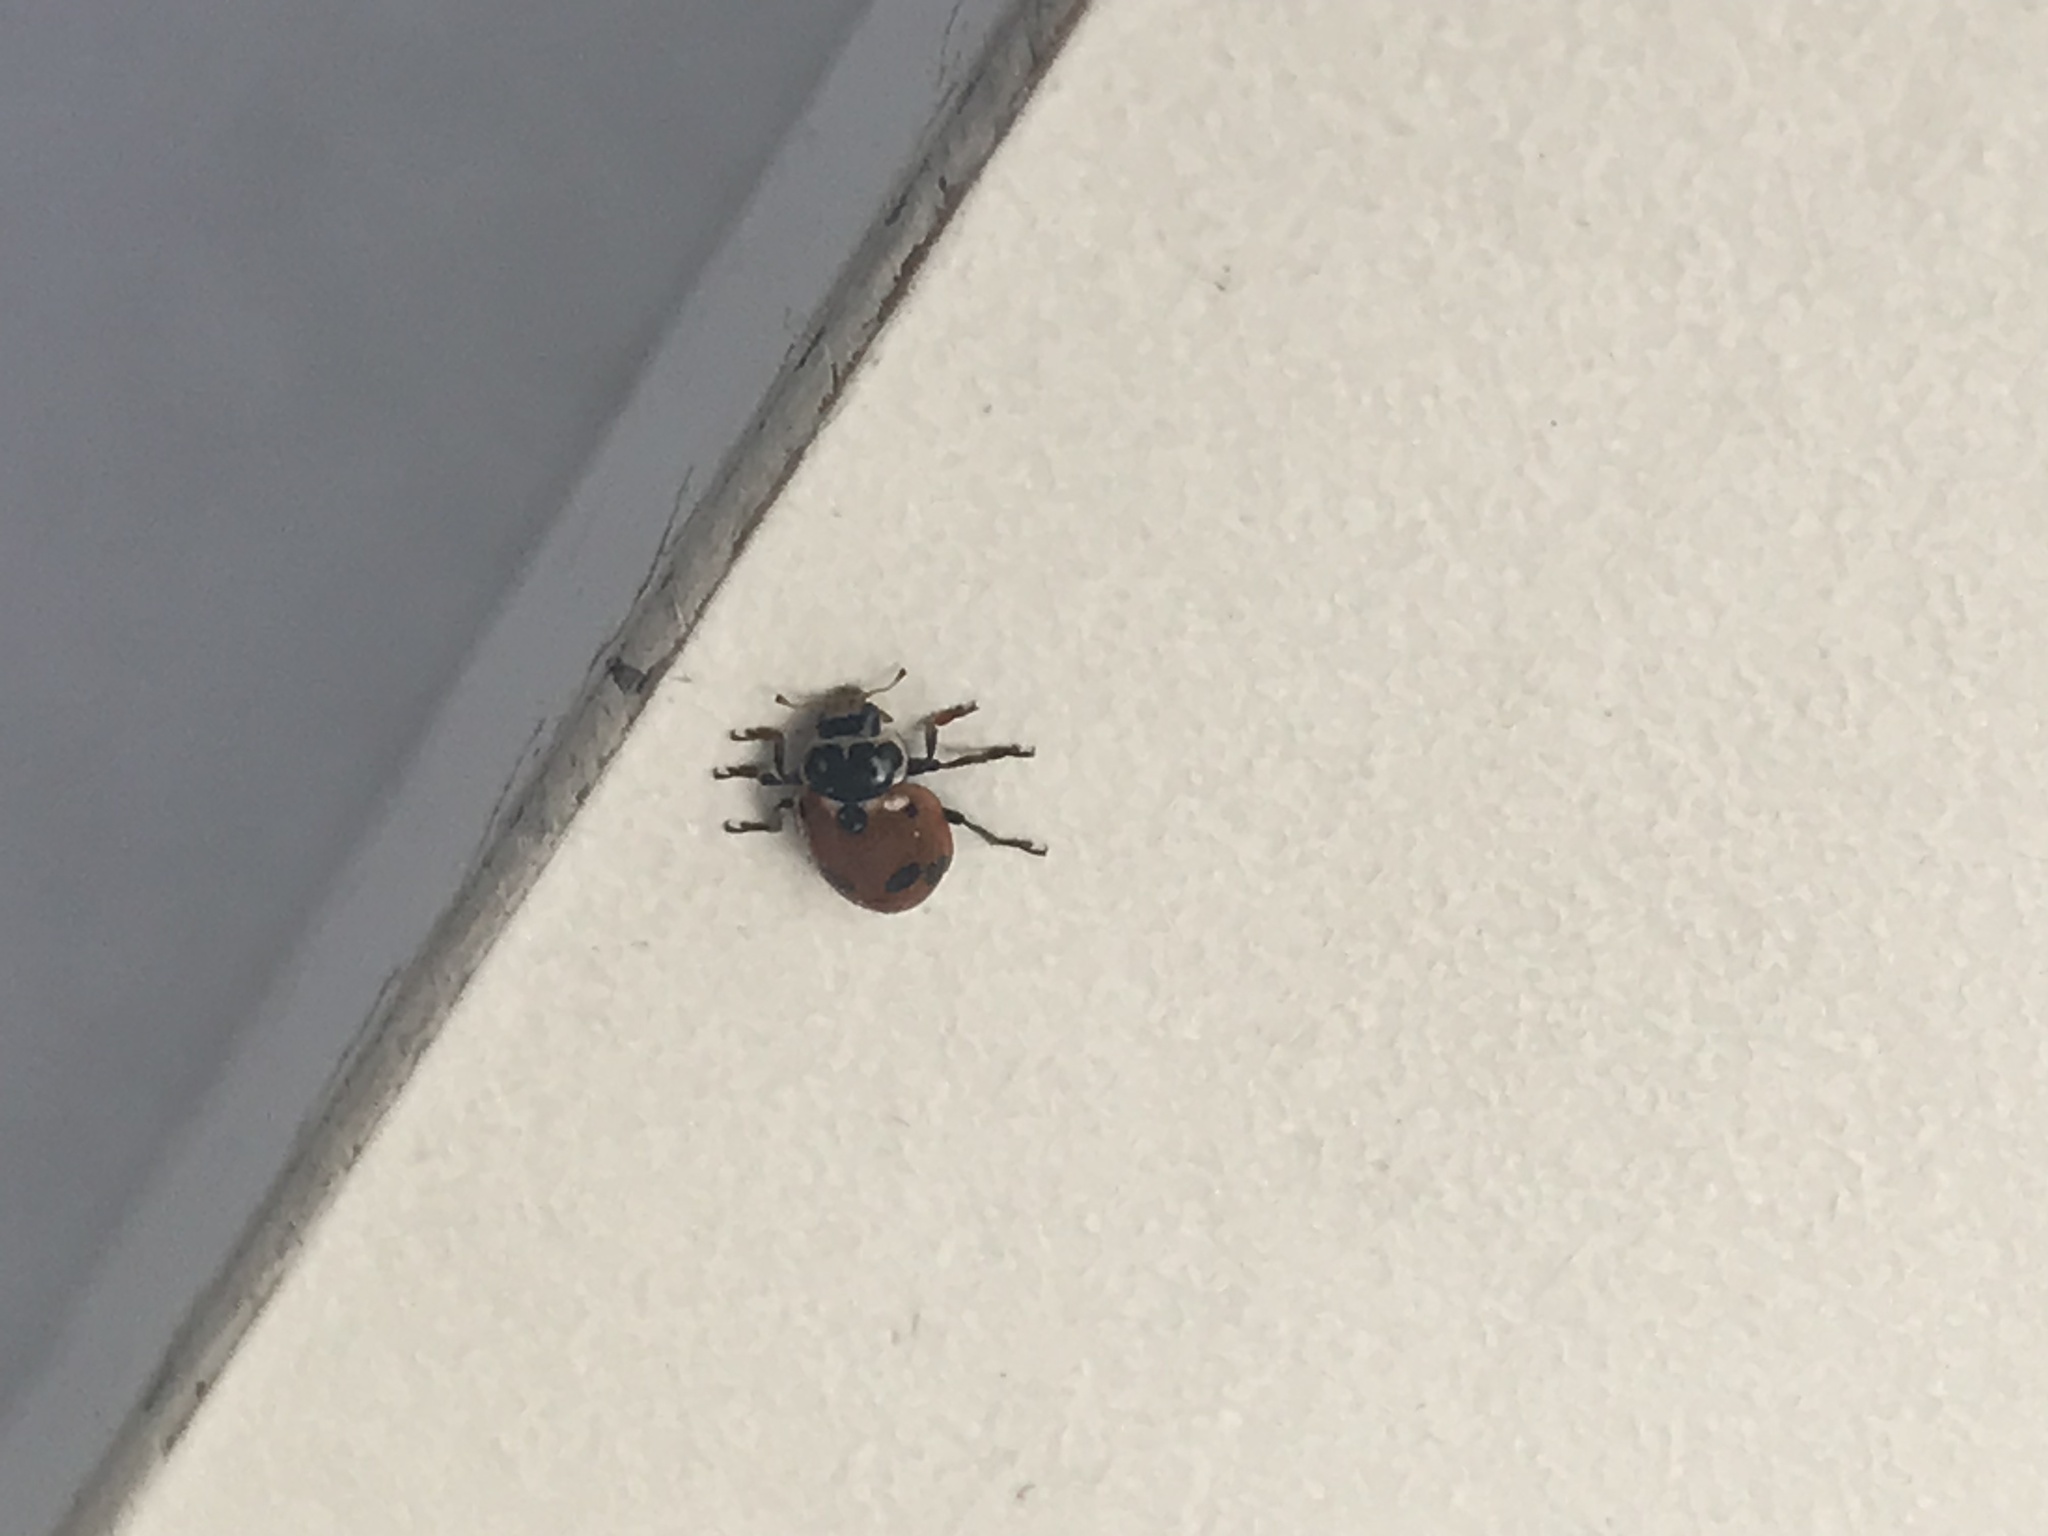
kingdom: Animalia
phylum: Arthropoda
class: Insecta
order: Coleoptera
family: Coccinellidae
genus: Hippodamia
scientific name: Hippodamia variegata
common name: Ladybird beetle
